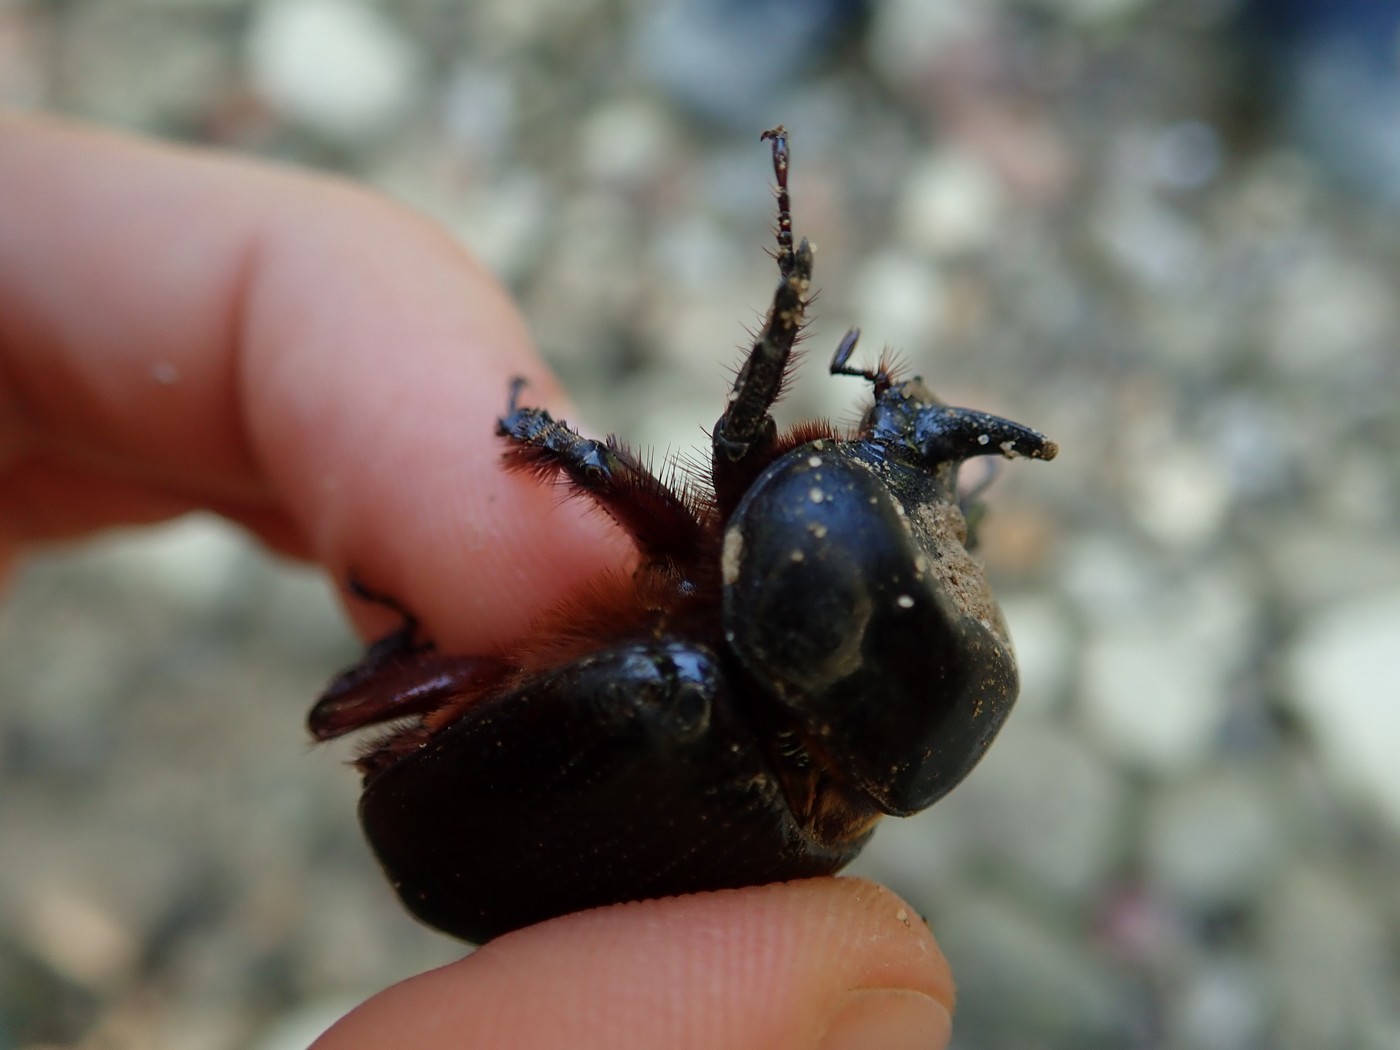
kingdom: Animalia
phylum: Arthropoda
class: Insecta
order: Coleoptera
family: Scarabaeidae
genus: Xyloryctes
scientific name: Xyloryctes jamaicensis
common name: Eastern rhinoceros beetle
